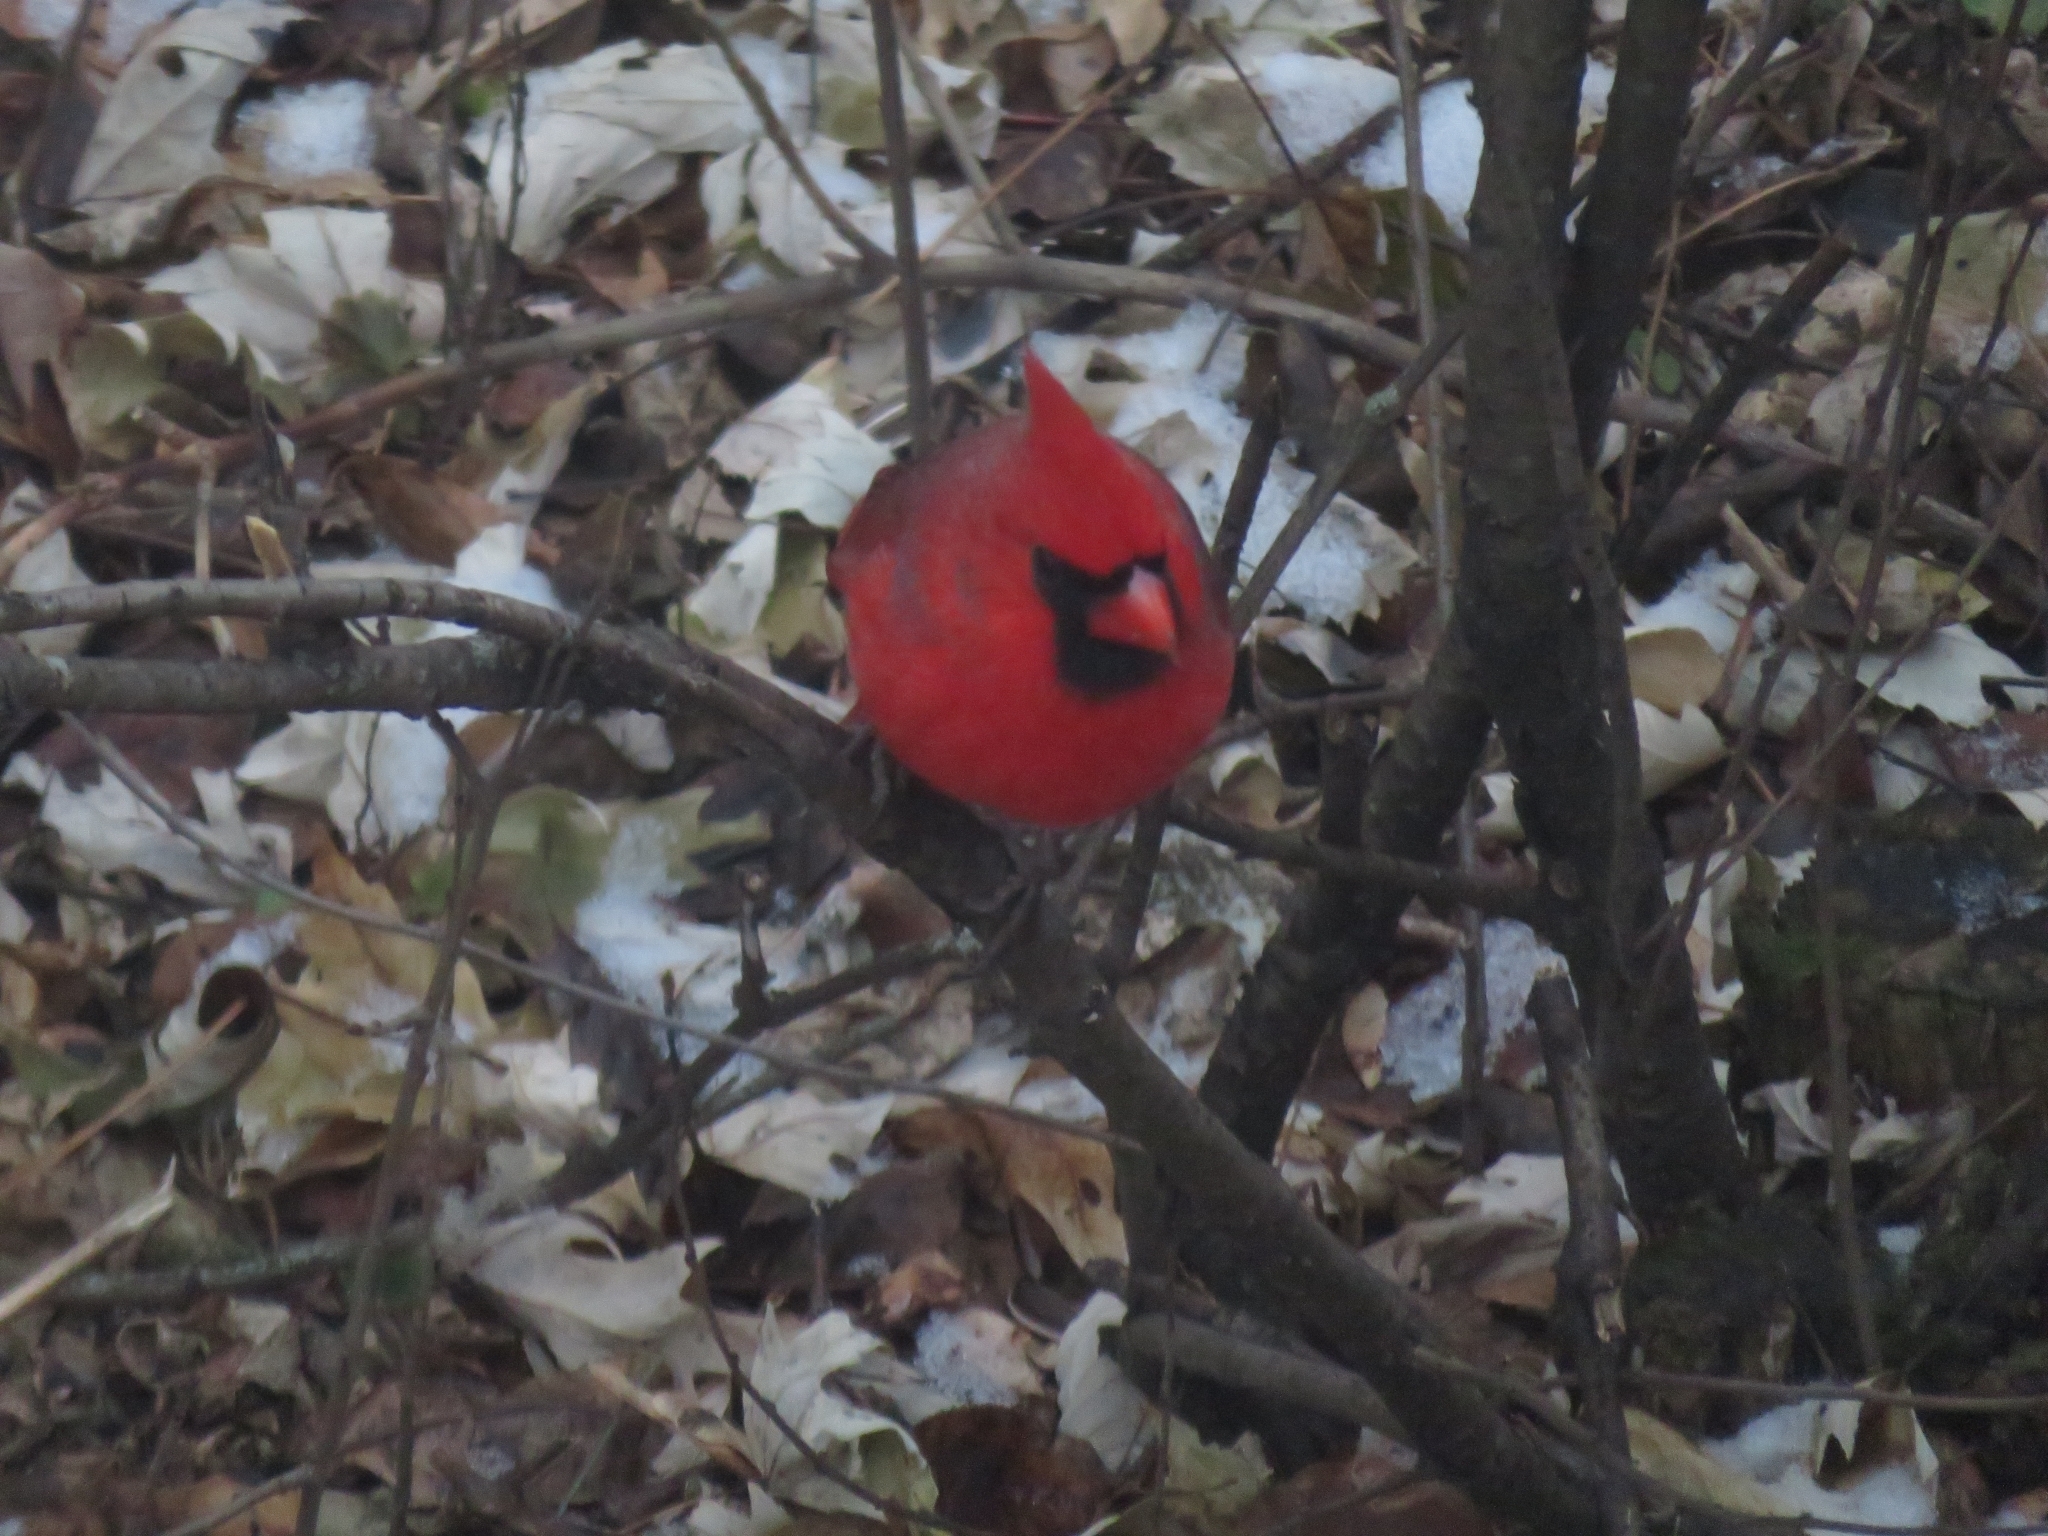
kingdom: Animalia
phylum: Chordata
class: Aves
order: Passeriformes
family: Cardinalidae
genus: Cardinalis
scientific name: Cardinalis cardinalis
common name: Northern cardinal
